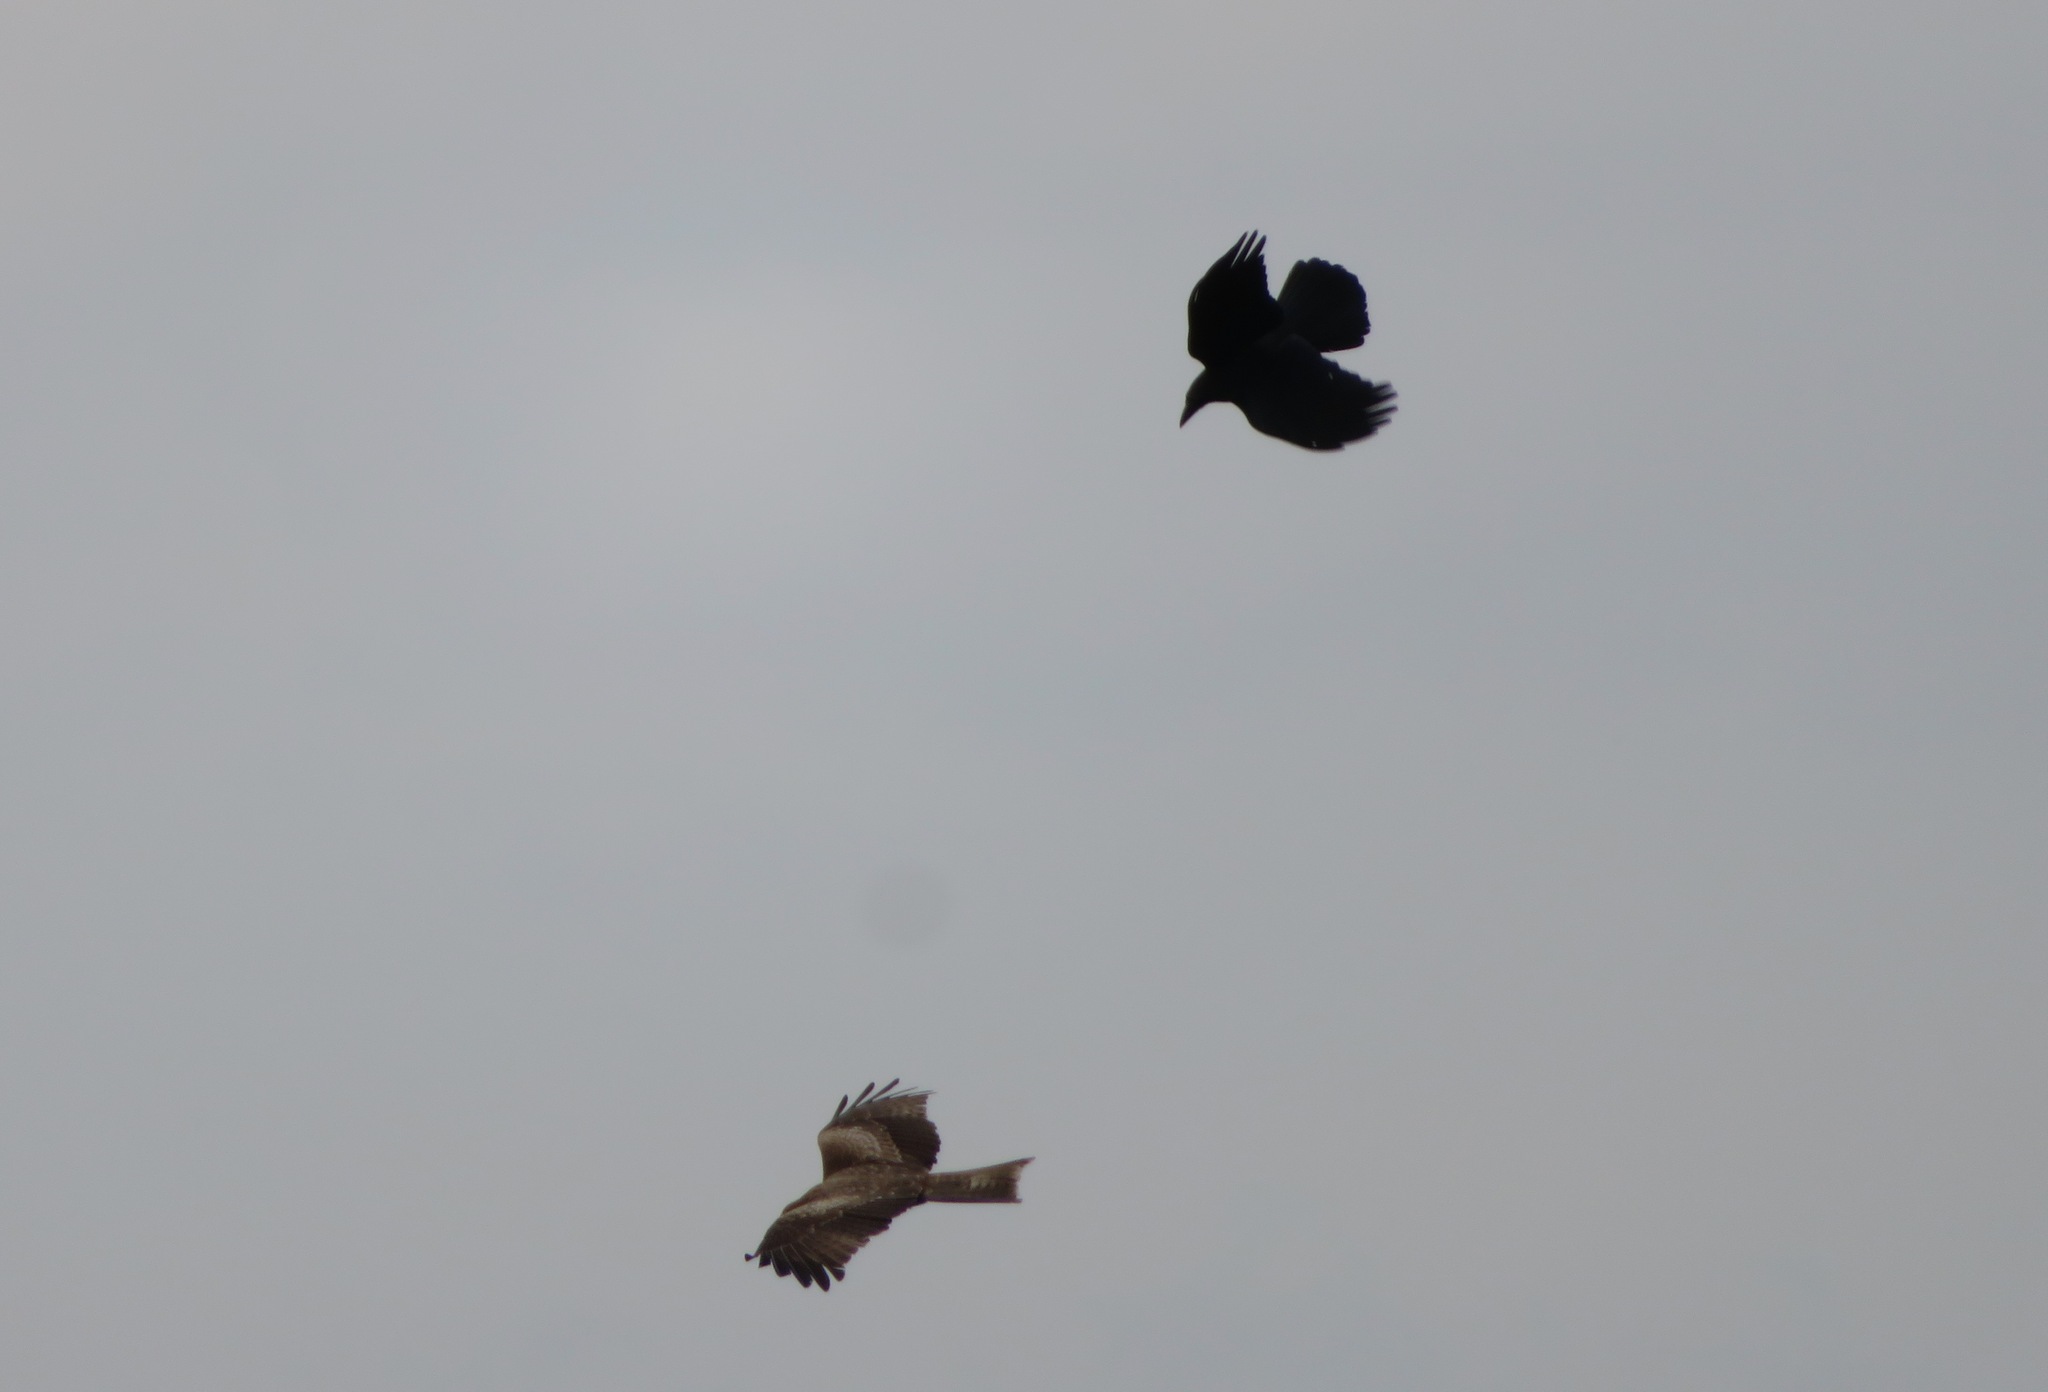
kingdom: Animalia
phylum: Chordata
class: Aves
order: Accipitriformes
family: Accipitridae
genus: Milvus
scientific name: Milvus migrans
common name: Black kite
